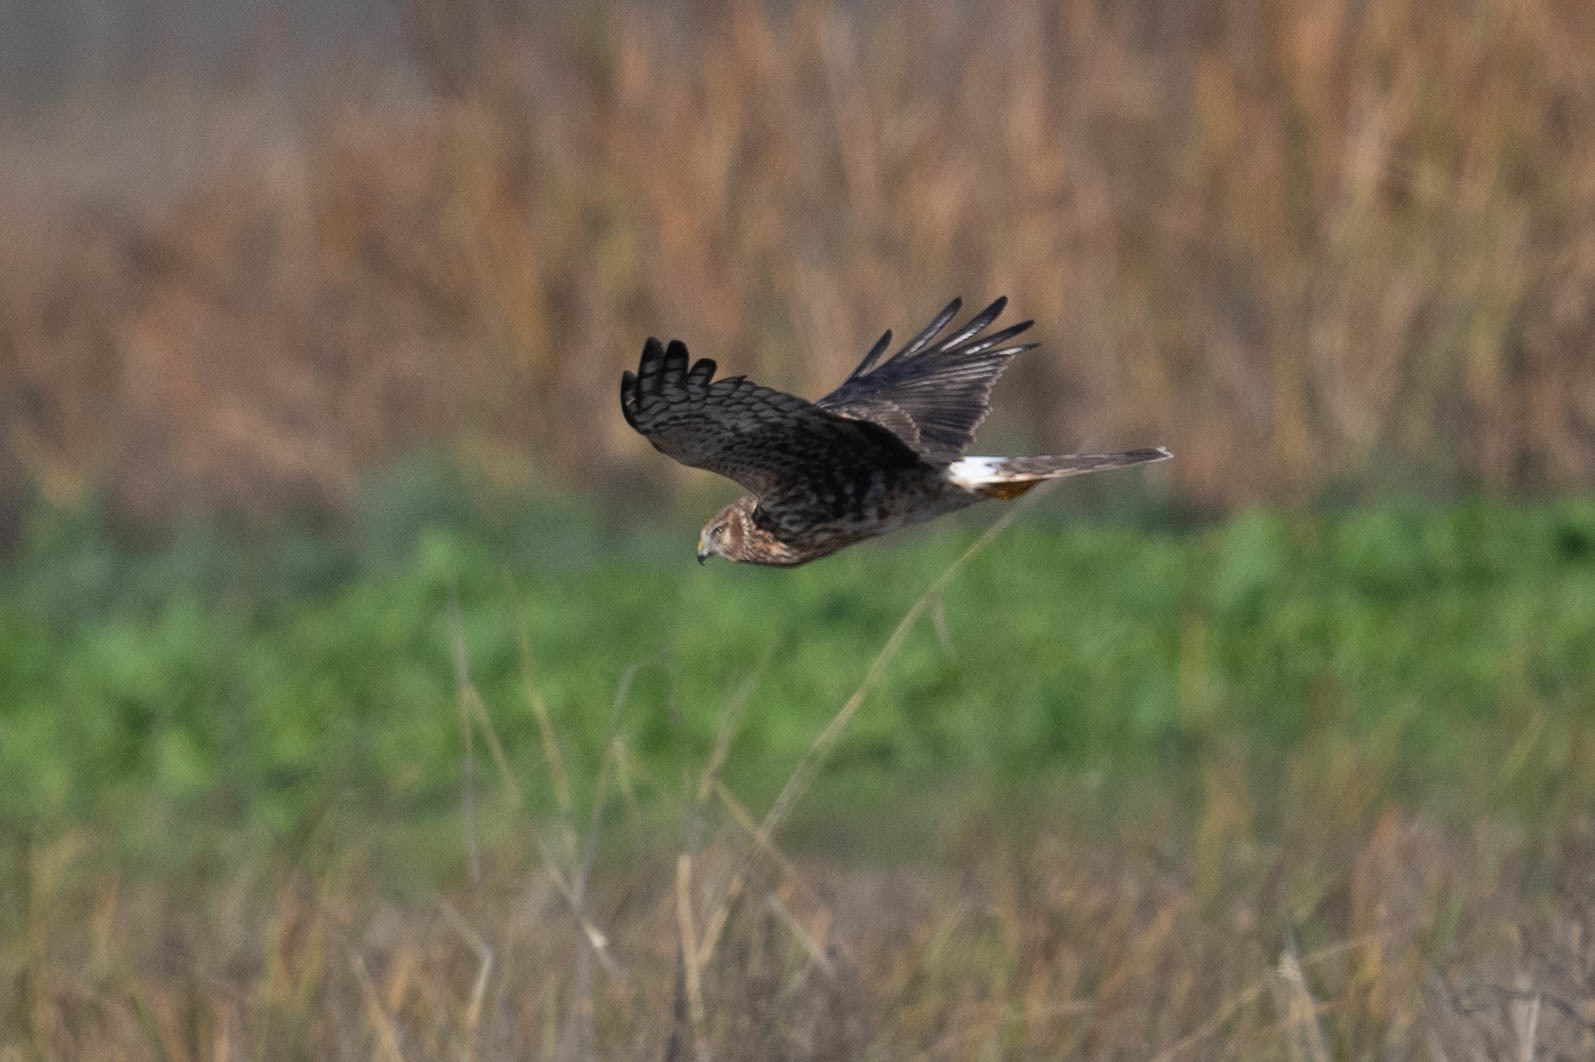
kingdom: Animalia
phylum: Chordata
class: Aves
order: Accipitriformes
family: Accipitridae
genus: Circus
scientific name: Circus cyaneus
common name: Hen harrier
